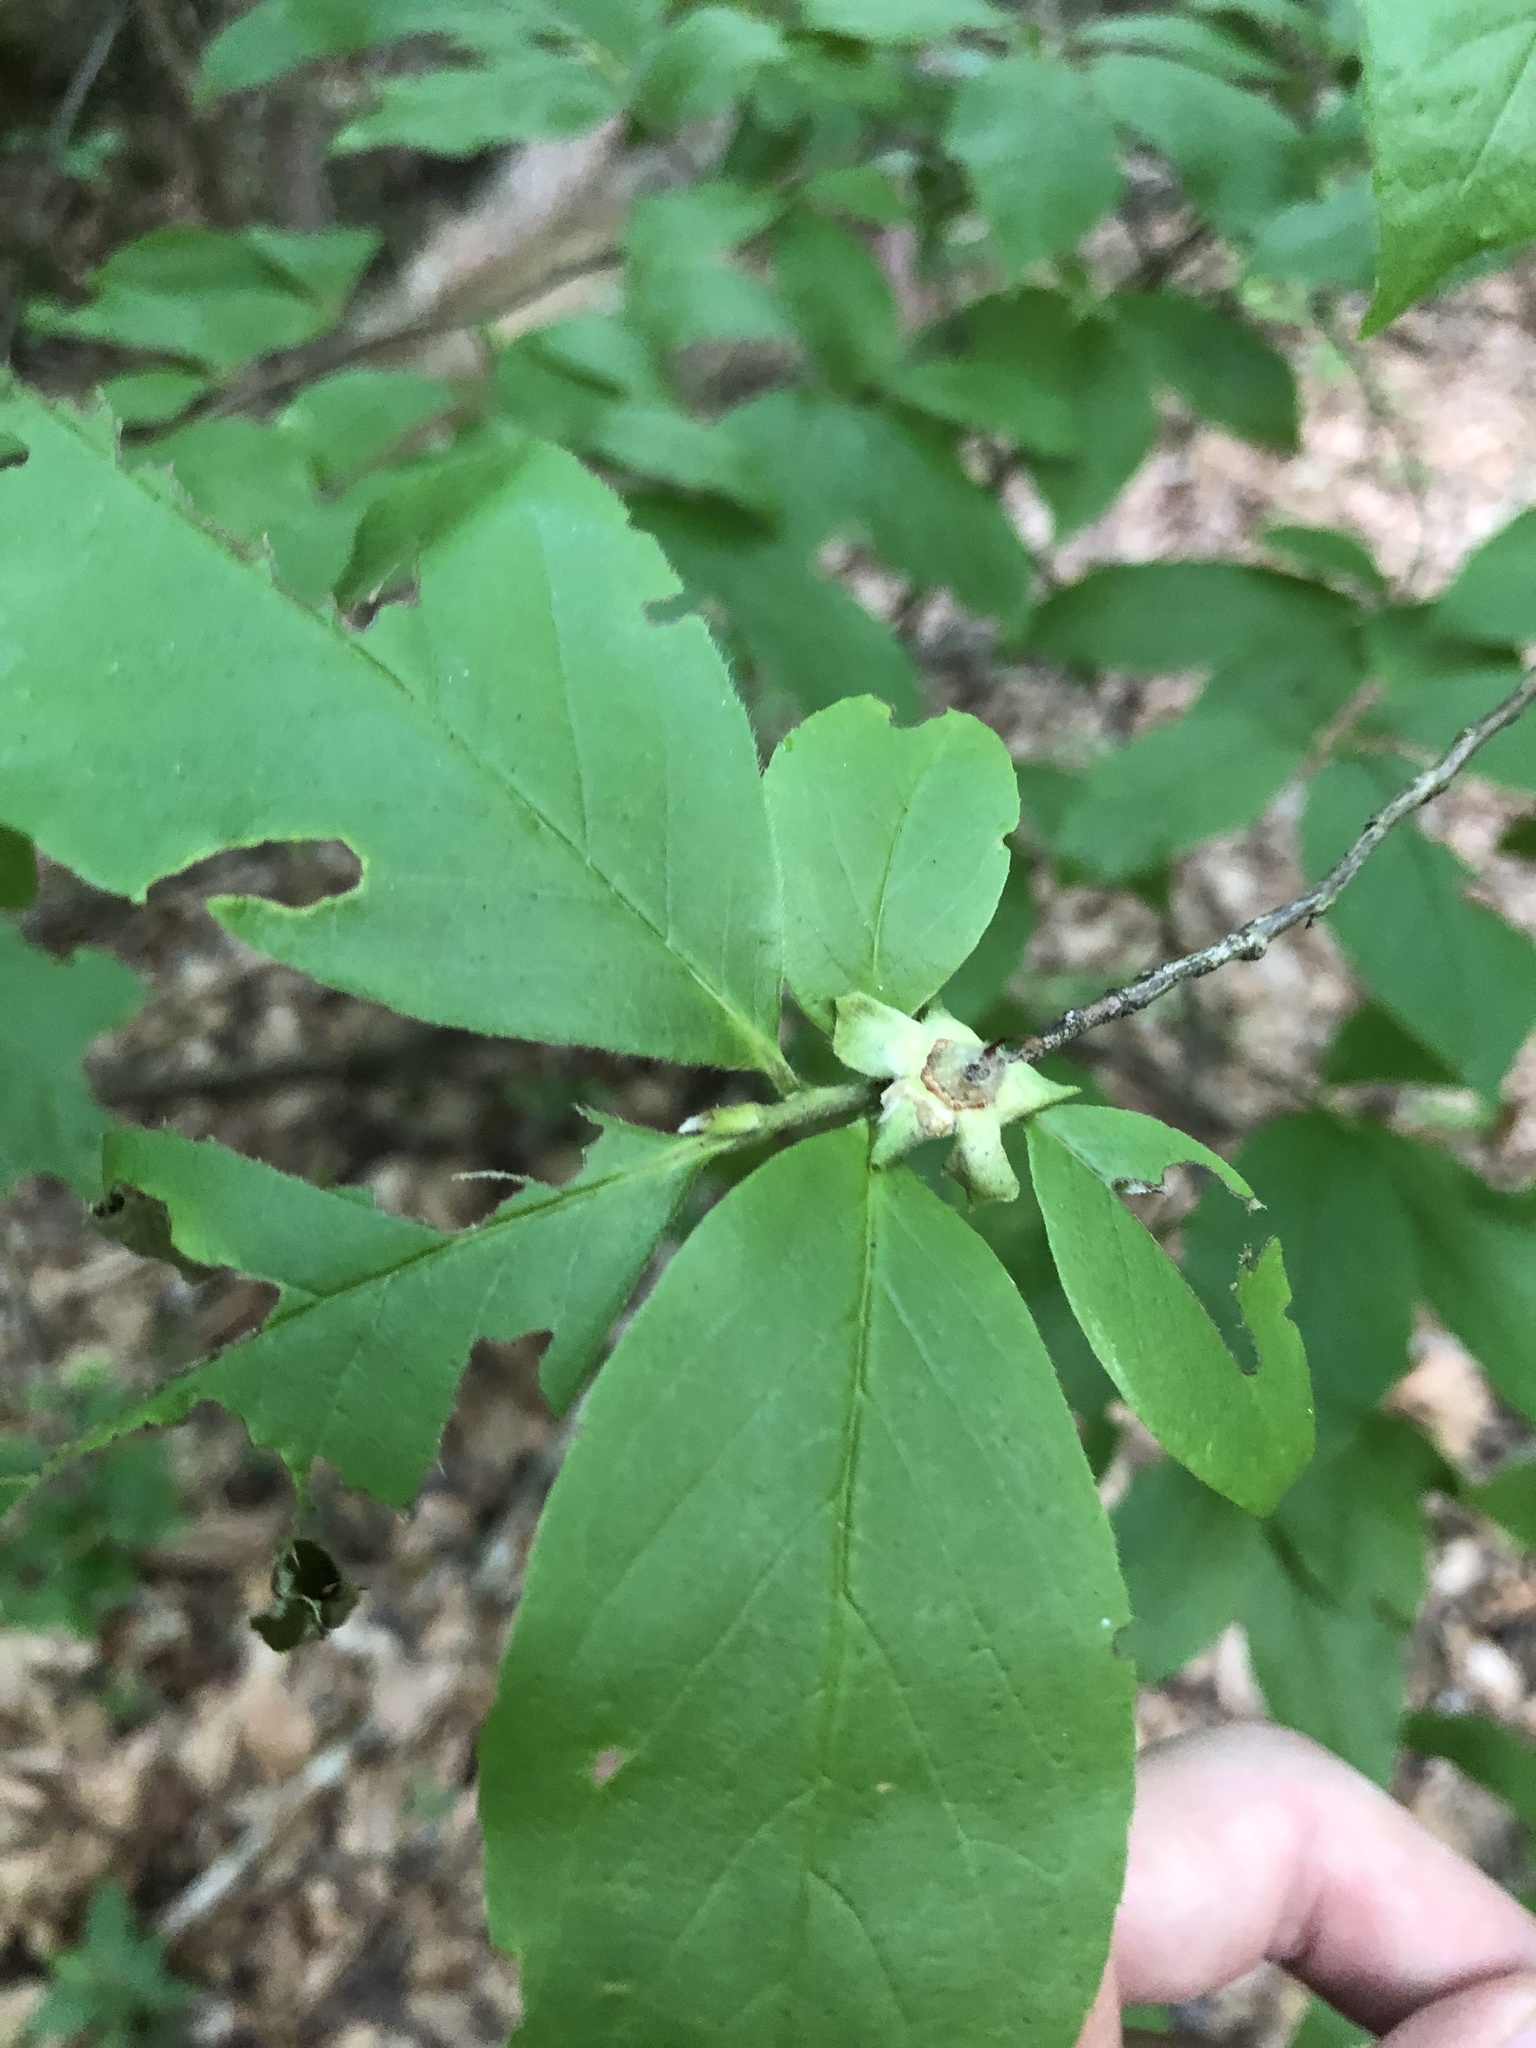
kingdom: Plantae
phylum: Tracheophyta
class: Magnoliopsida
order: Ericales
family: Theaceae
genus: Stewartia
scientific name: Stewartia malacodendron
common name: Virginia stewartia
